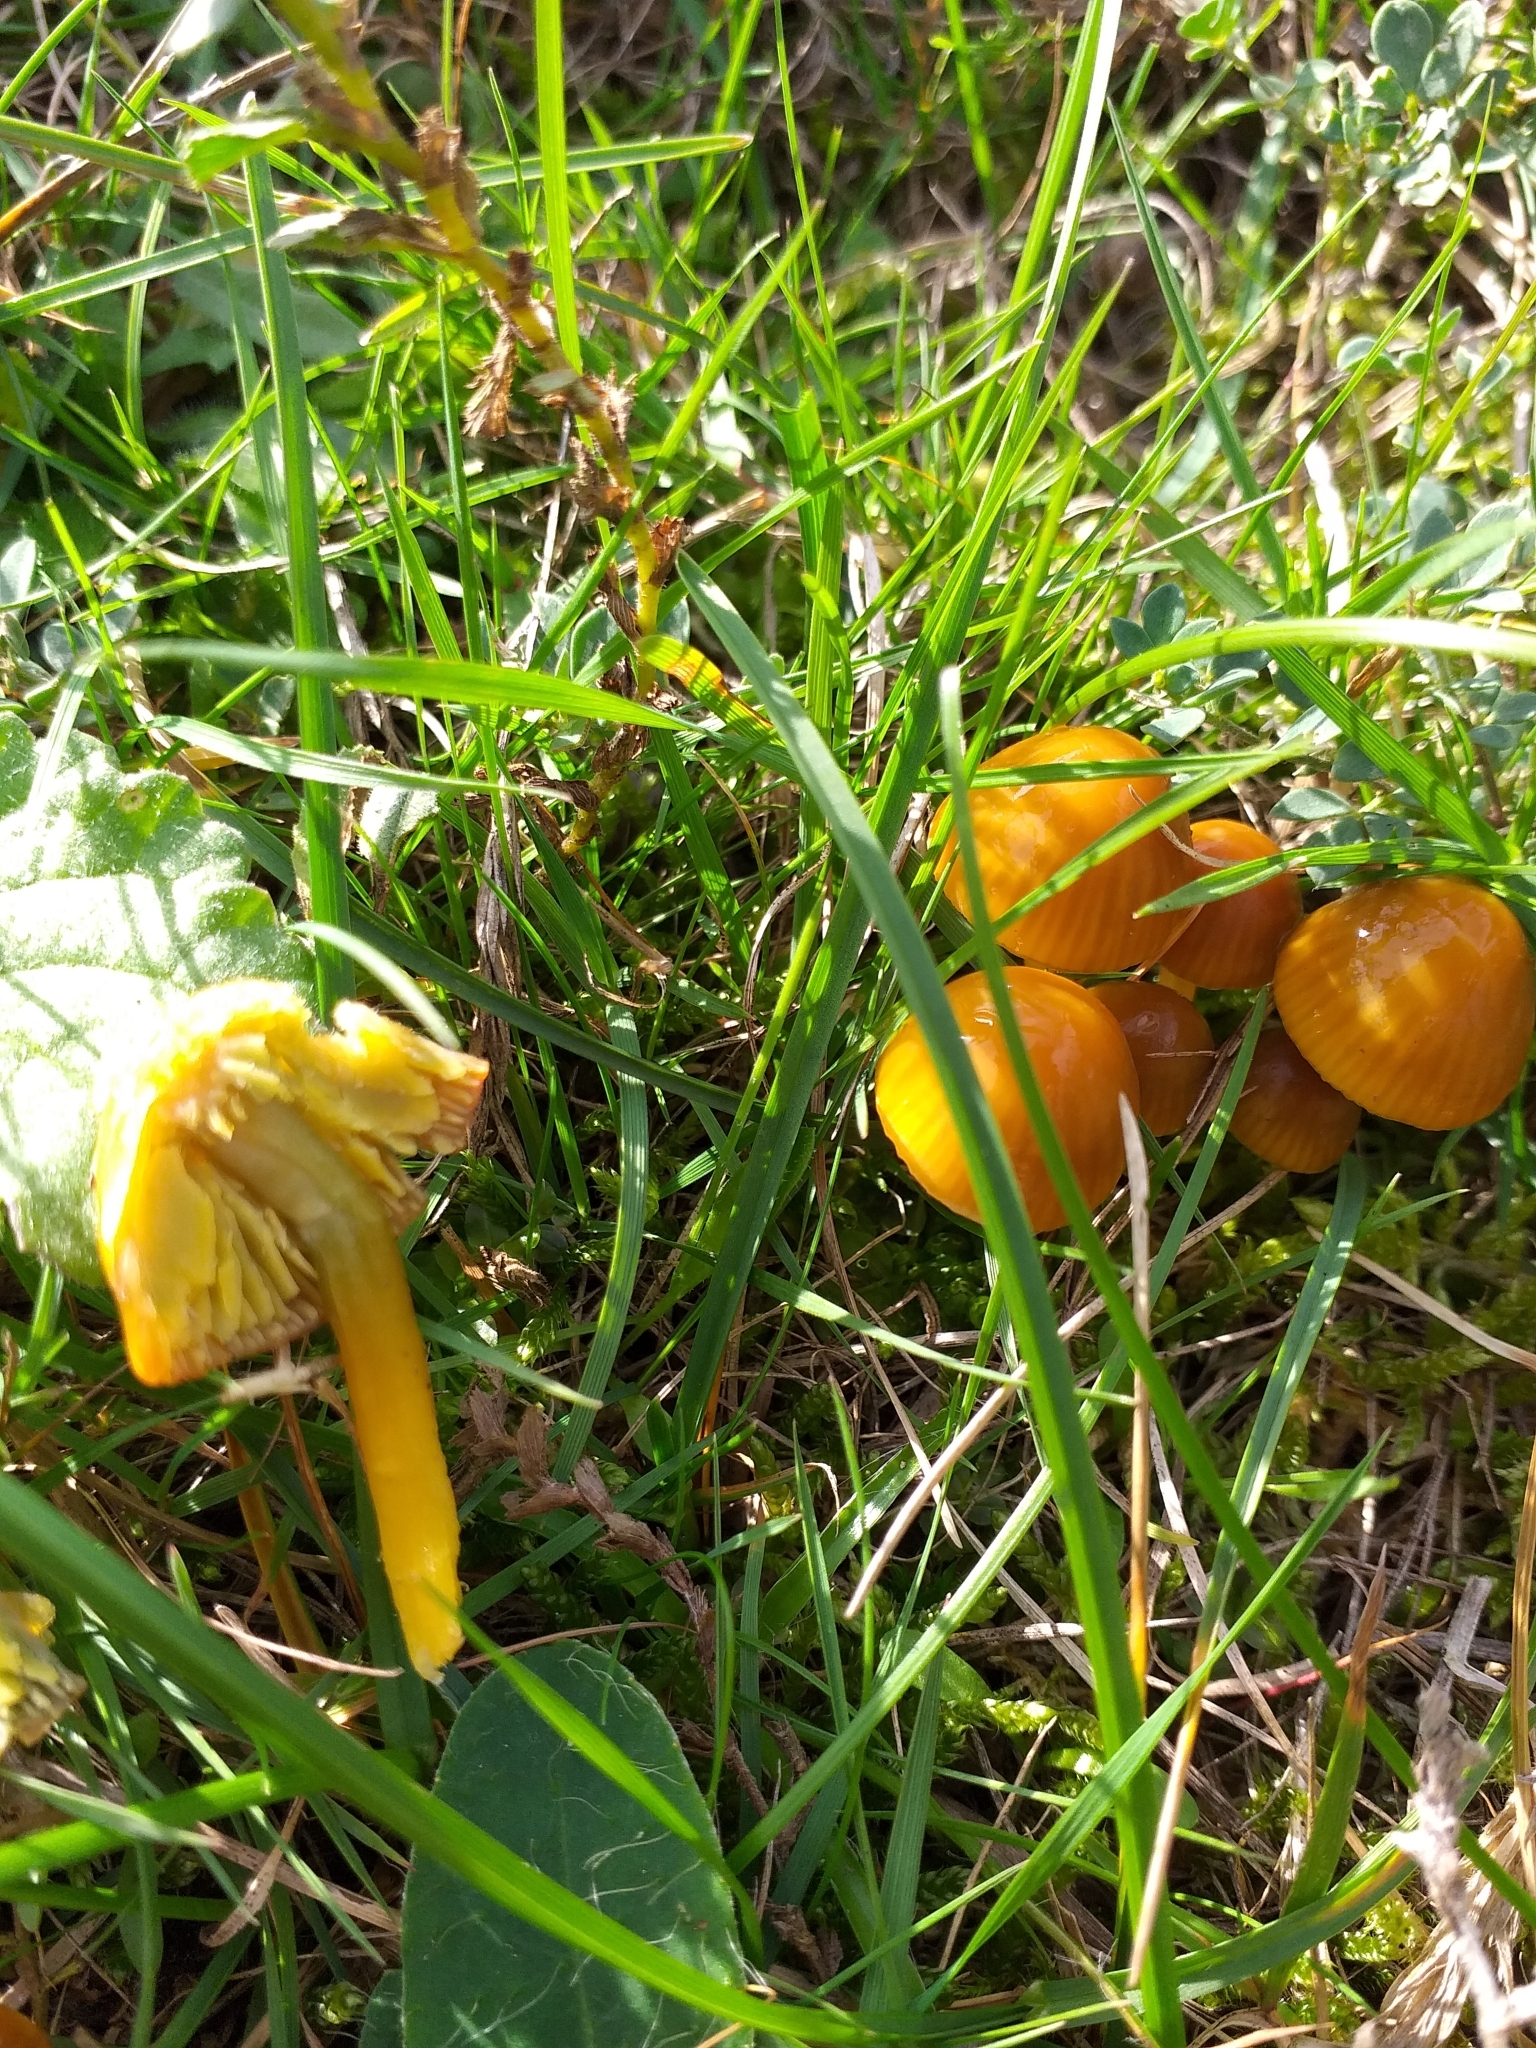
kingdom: Fungi
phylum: Basidiomycota
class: Agaricomycetes
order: Agaricales
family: Hygrophoraceae
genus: Gliophorus
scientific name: Gliophorus psittacinus
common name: Parrot wax-cap
